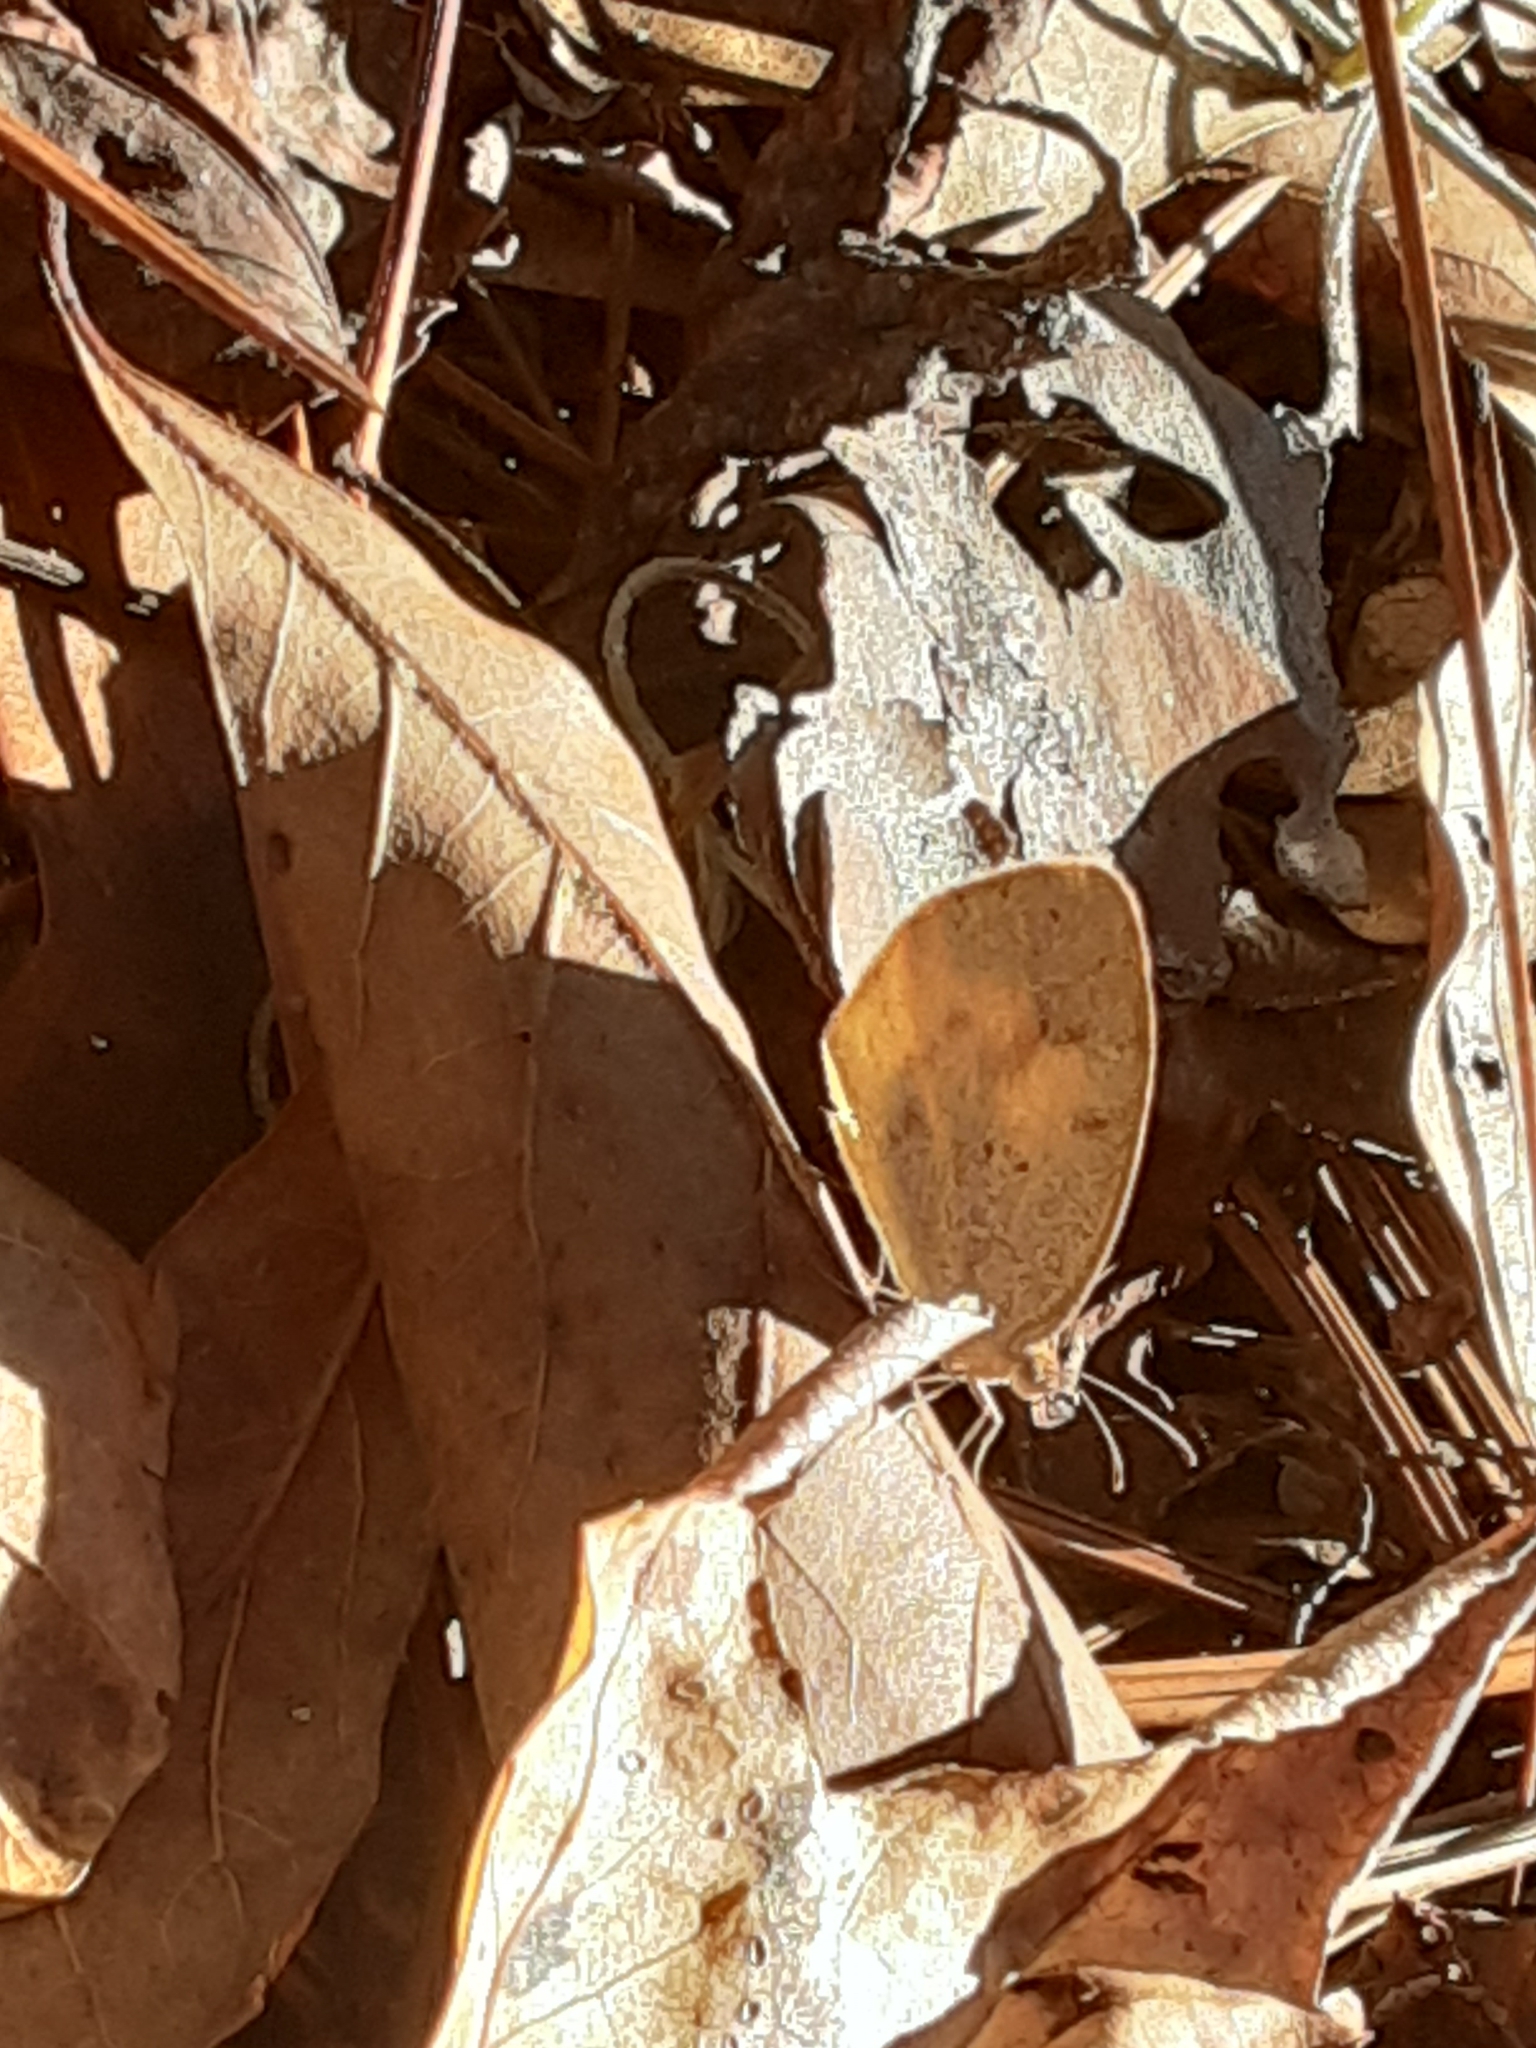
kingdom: Animalia
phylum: Arthropoda
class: Insecta
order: Lepidoptera
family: Pieridae
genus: Abaeis
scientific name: Abaeis nicippe
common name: Sleepy orange
